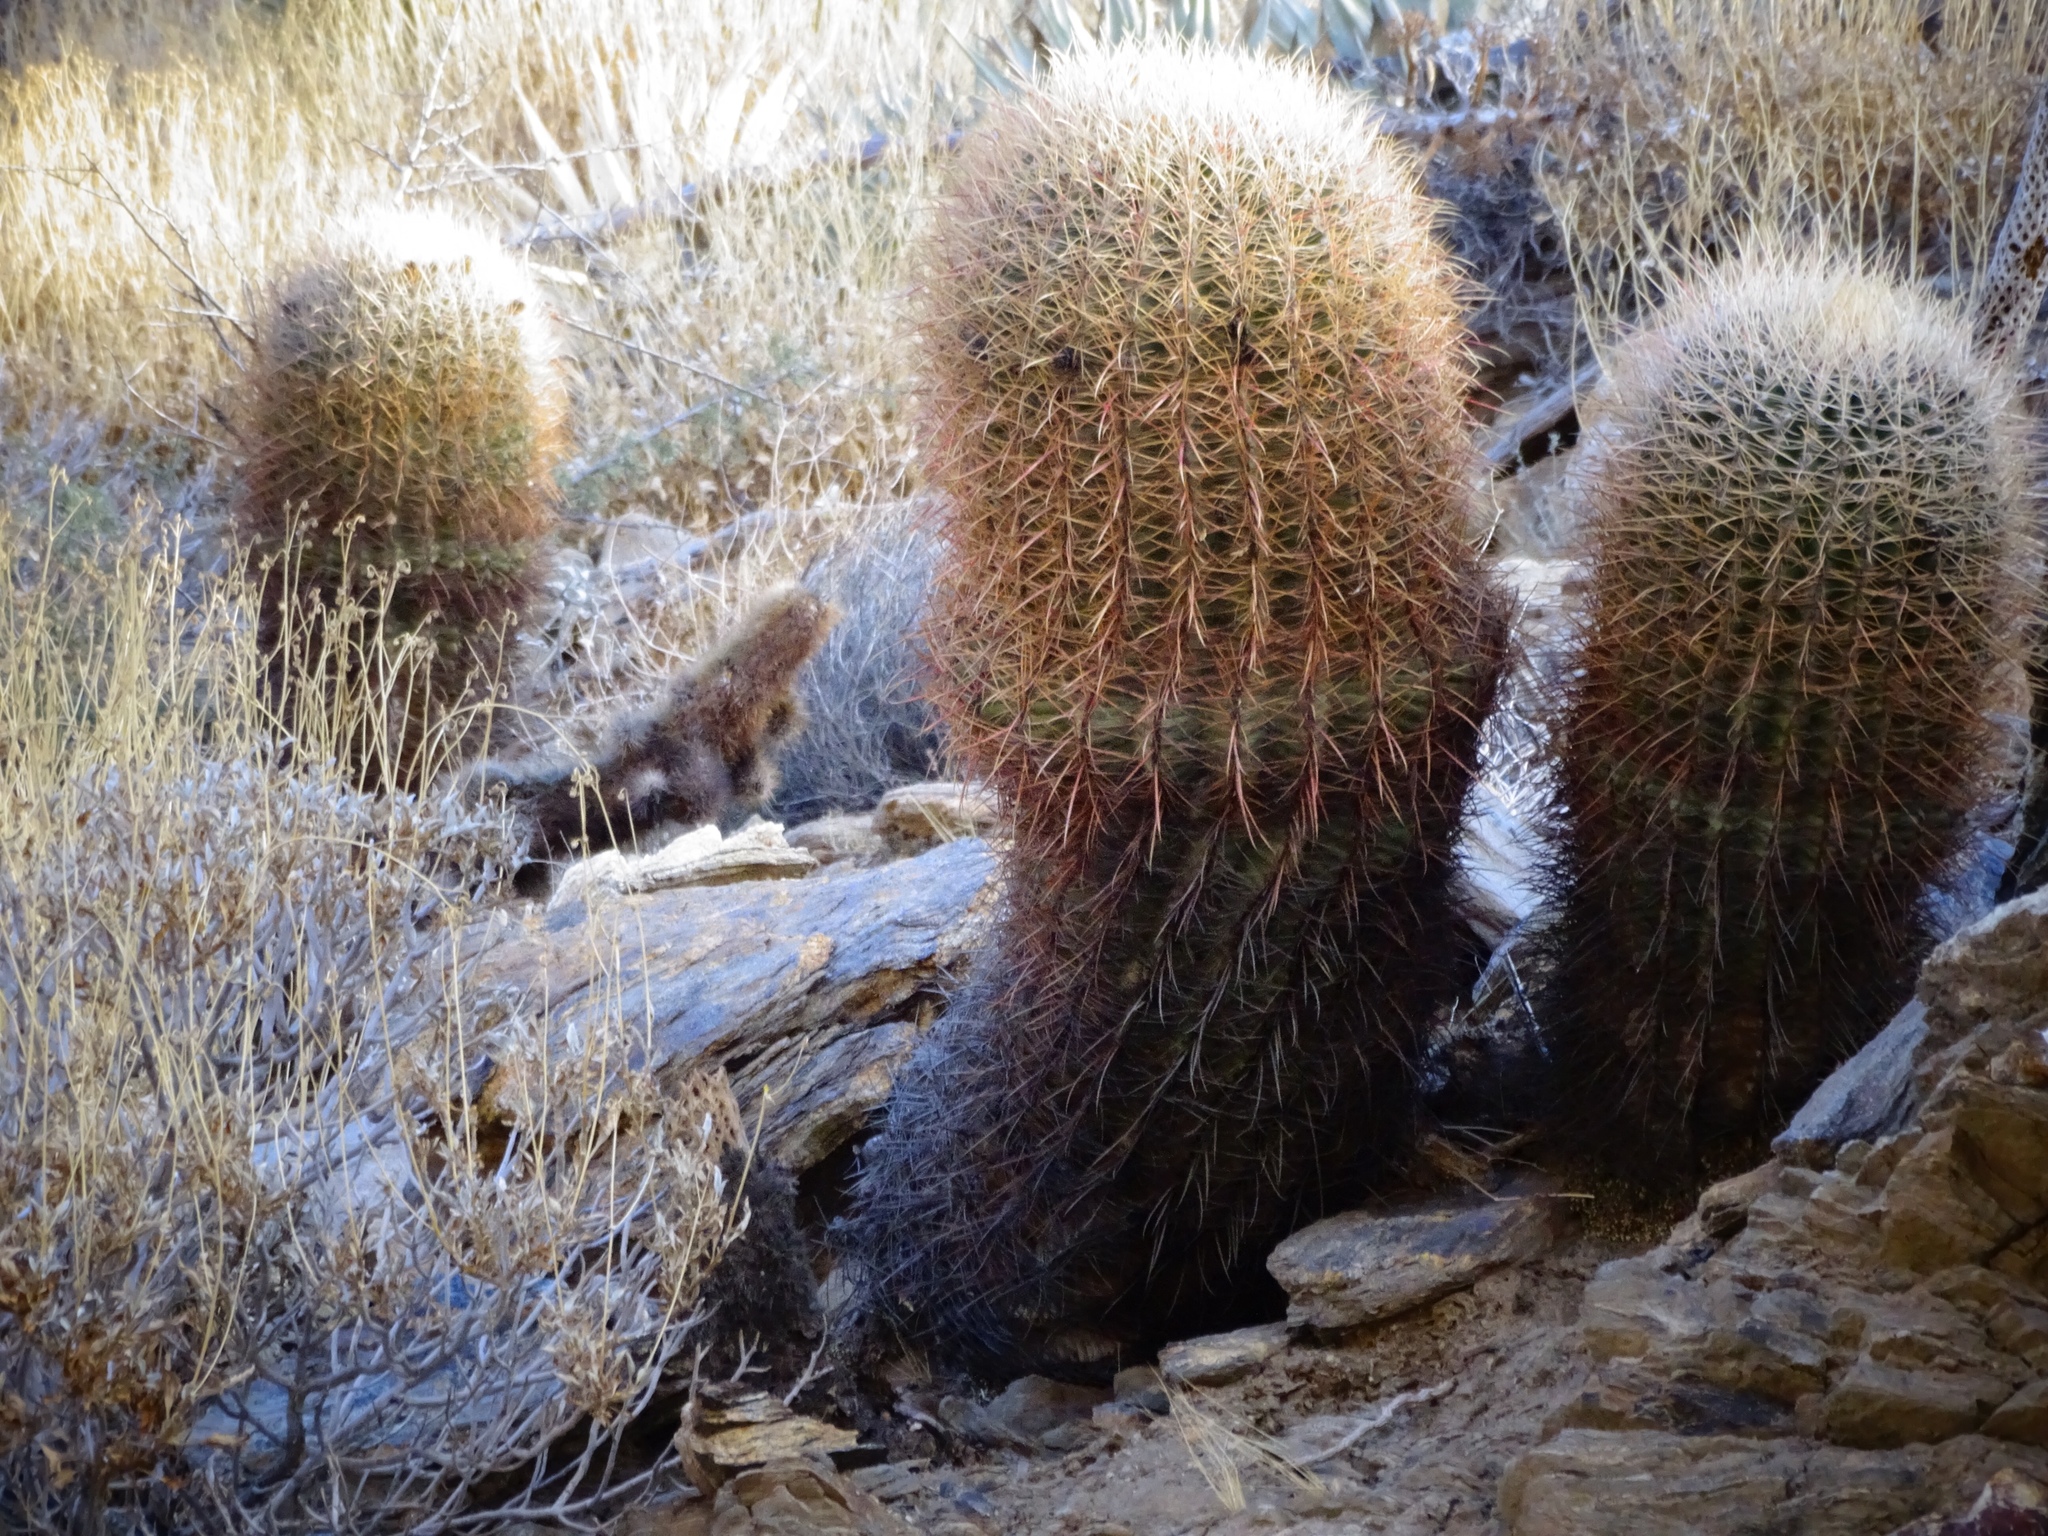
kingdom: Plantae
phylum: Tracheophyta
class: Magnoliopsida
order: Caryophyllales
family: Cactaceae
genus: Ferocactus
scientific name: Ferocactus cylindraceus
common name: California barrel cactus
